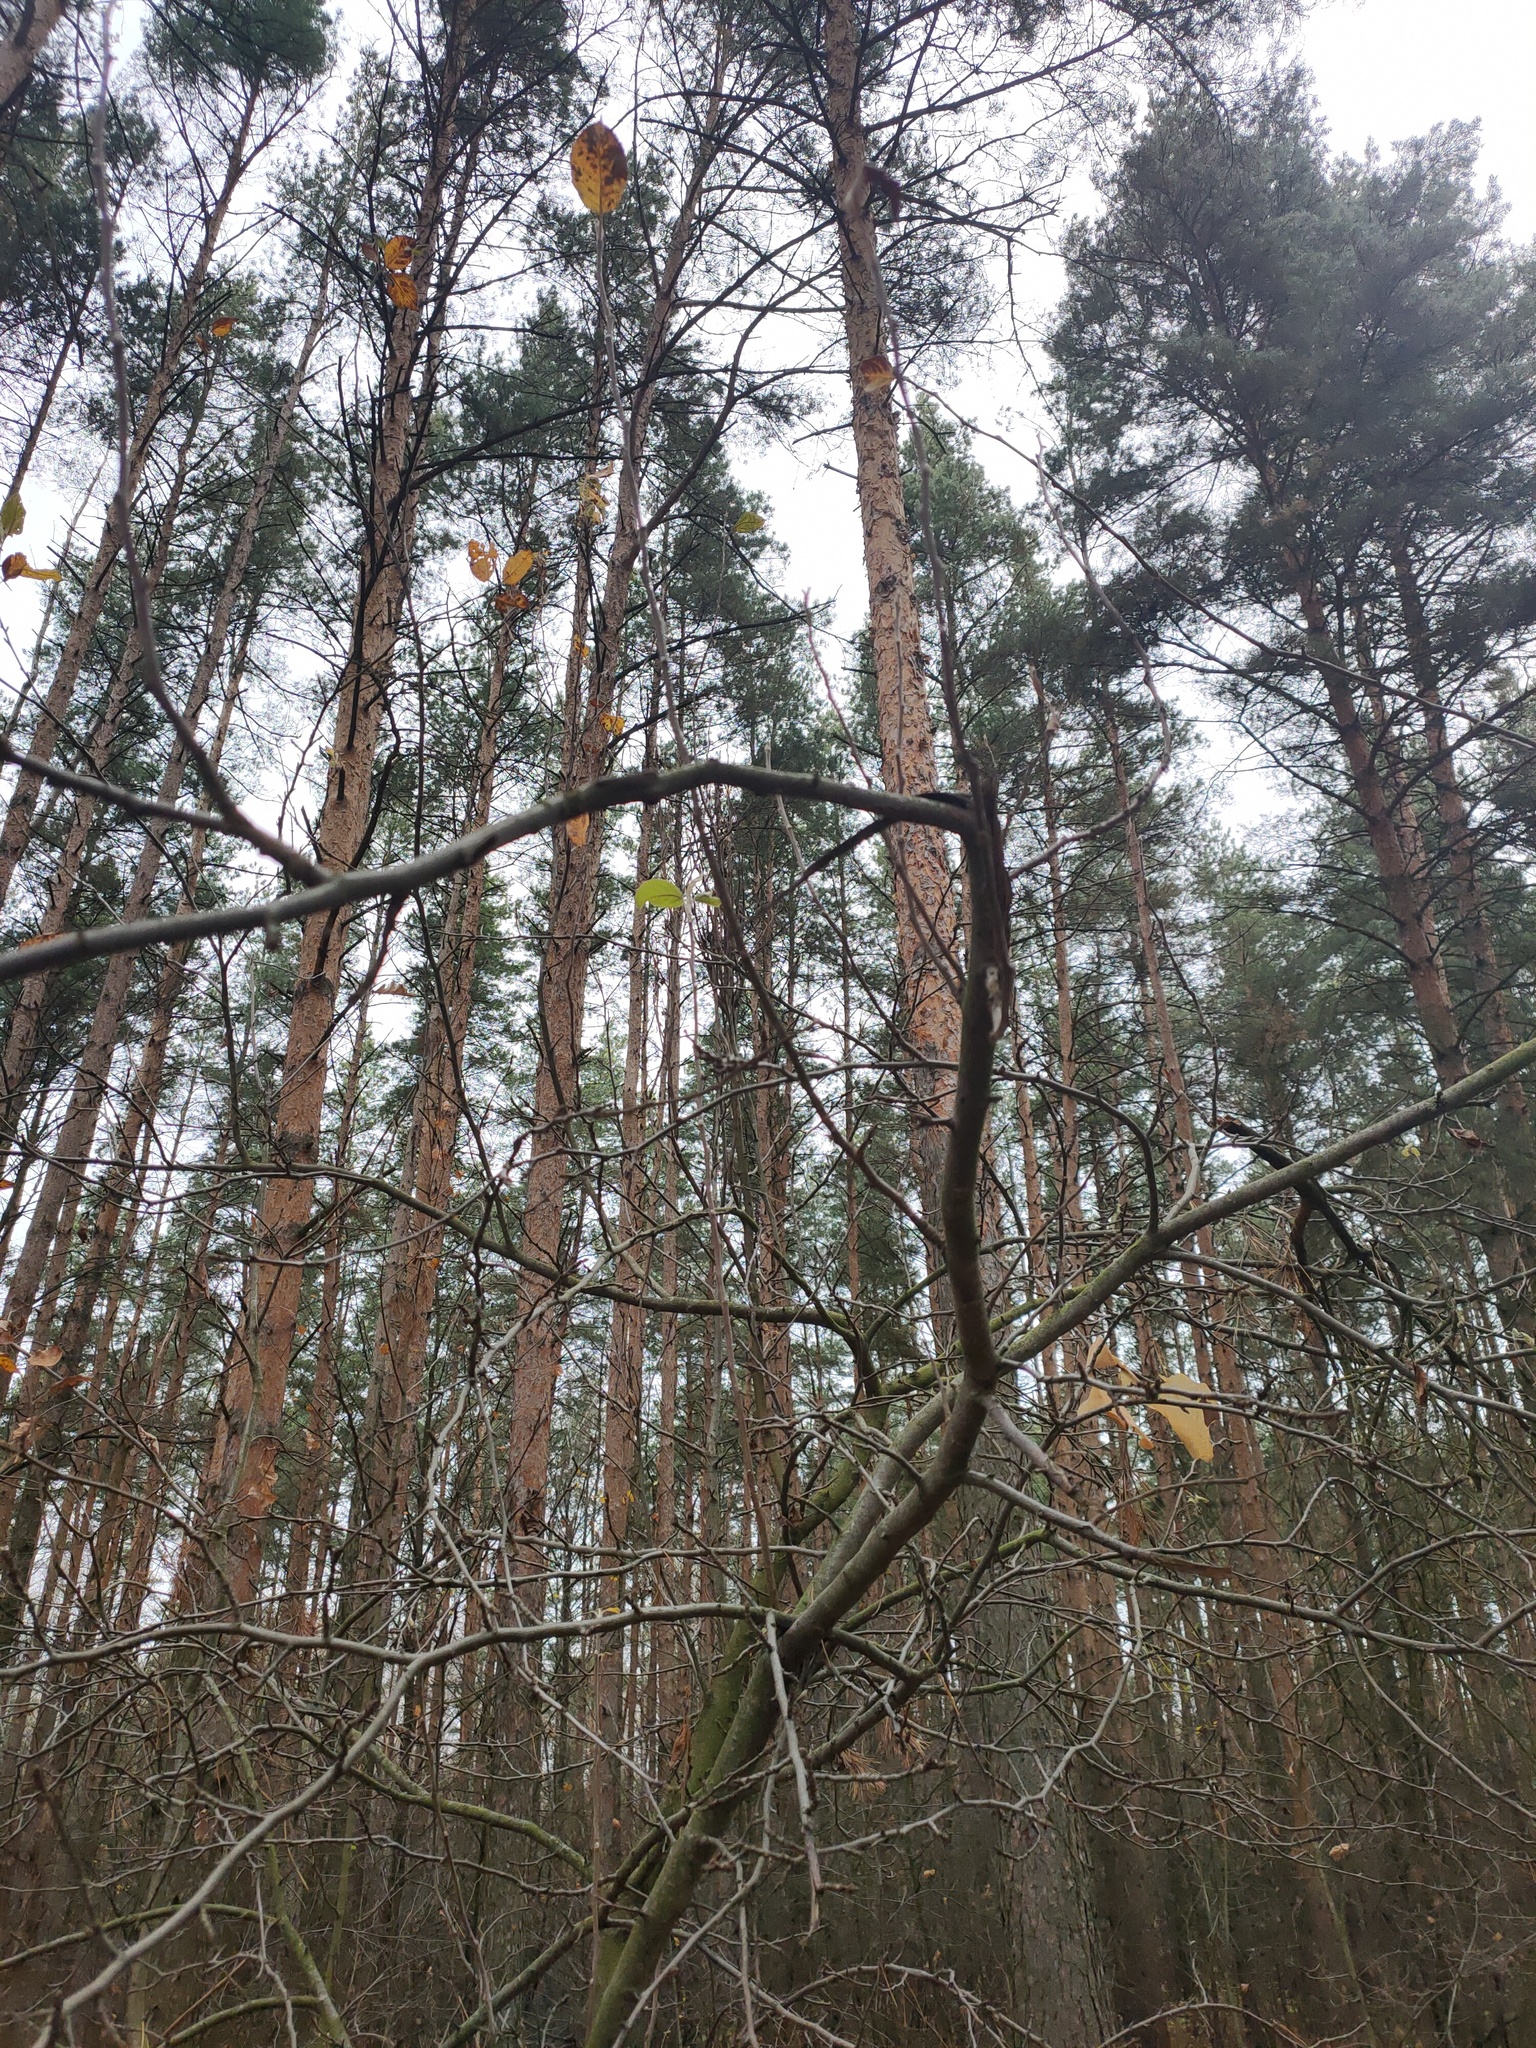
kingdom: Plantae
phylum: Tracheophyta
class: Magnoliopsida
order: Rosales
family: Rosaceae
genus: Malus
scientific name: Malus domestica
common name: Apple
